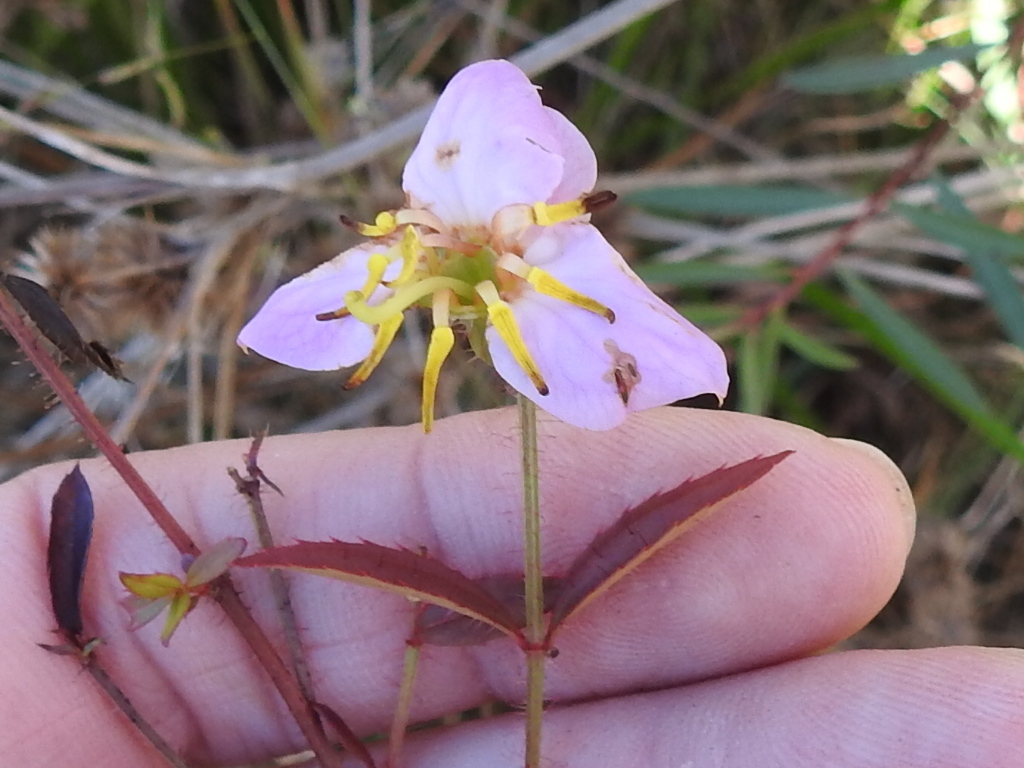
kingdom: Plantae
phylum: Tracheophyta
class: Magnoliopsida
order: Myrtales
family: Melastomataceae
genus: Rhexia
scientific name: Rhexia mariana
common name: Dull meadow-pitcher
